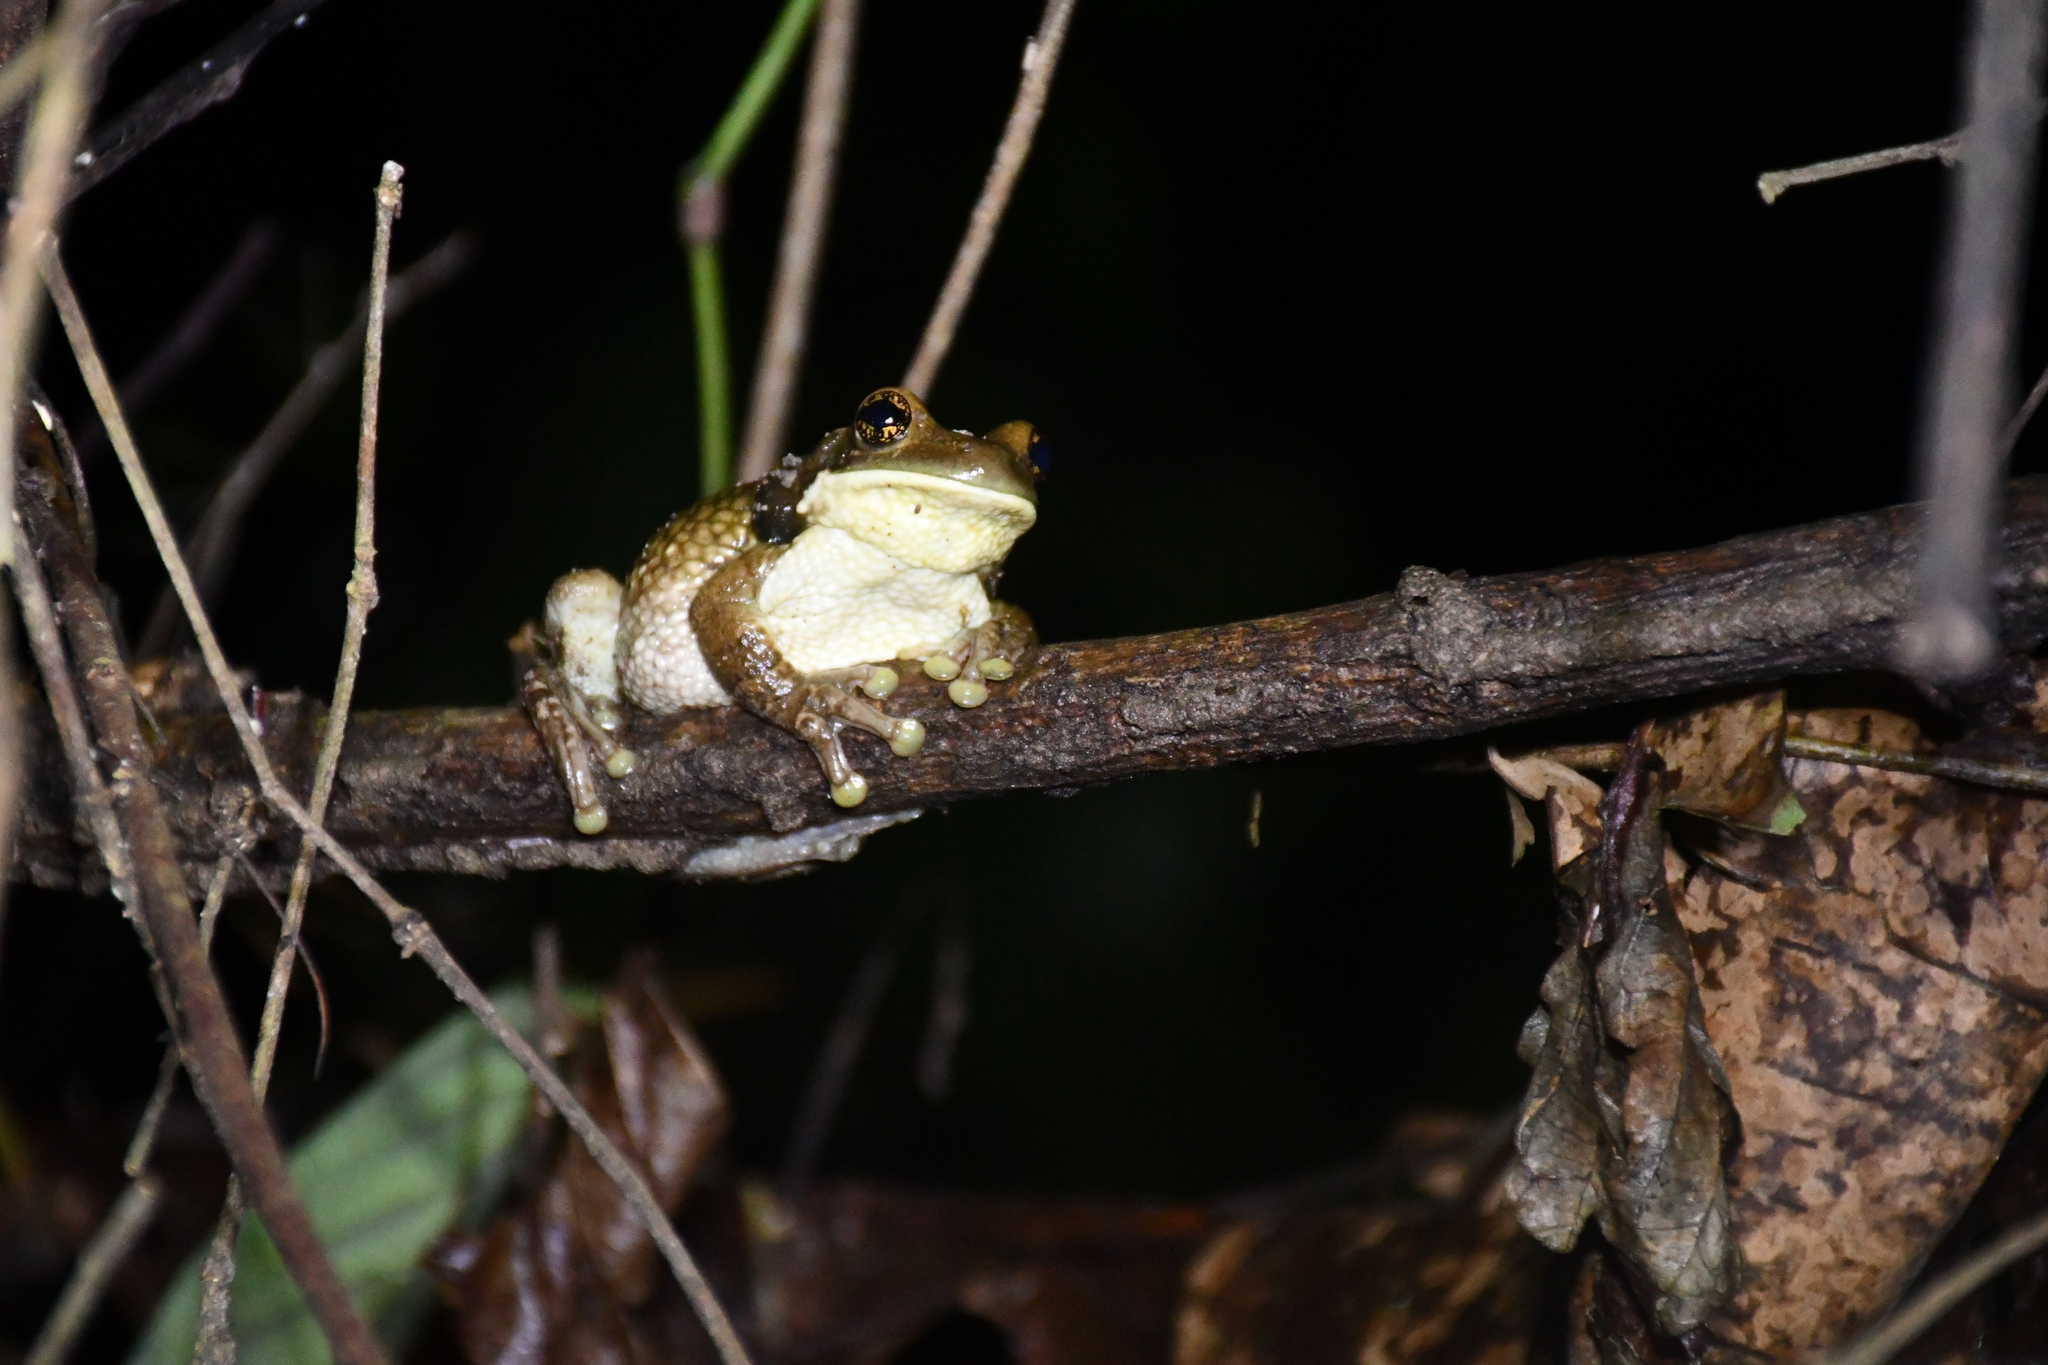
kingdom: Animalia
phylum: Chordata
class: Amphibia
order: Anura
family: Hylidae
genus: Trachycephalus
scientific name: Trachycephalus typhonius
